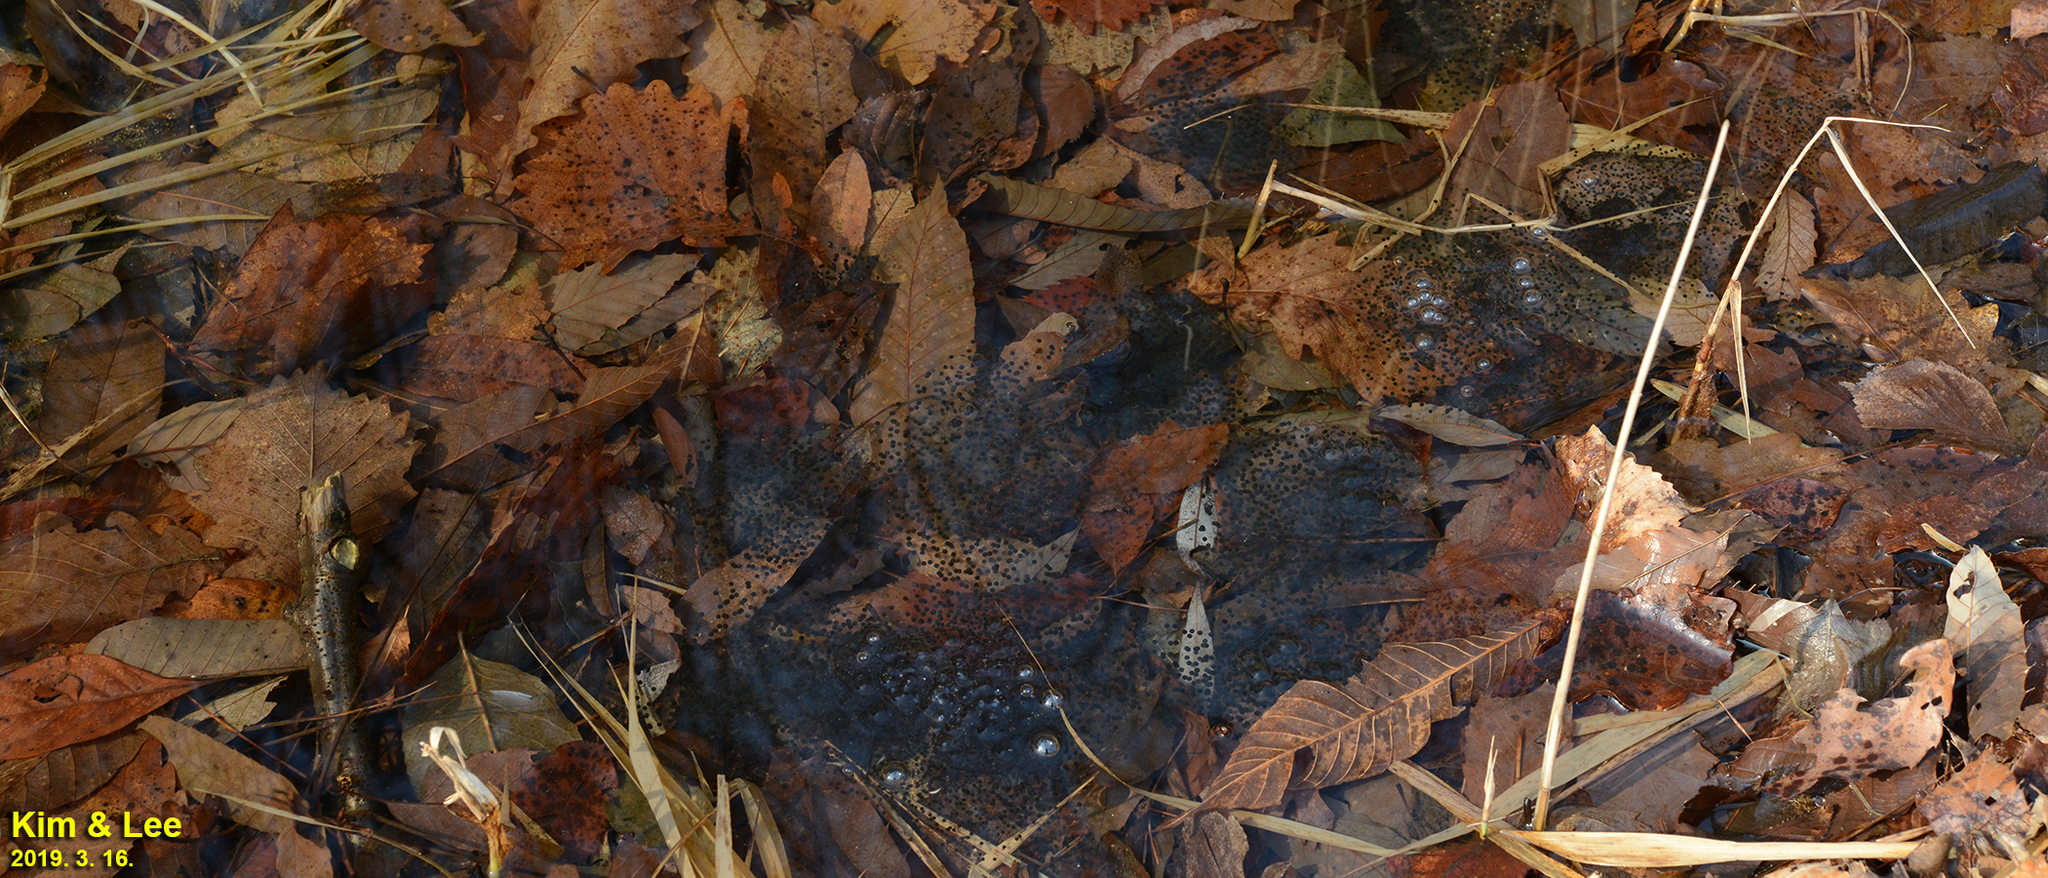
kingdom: Animalia
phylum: Chordata
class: Amphibia
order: Anura
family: Ranidae
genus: Rana
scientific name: Rana huanrenensis
